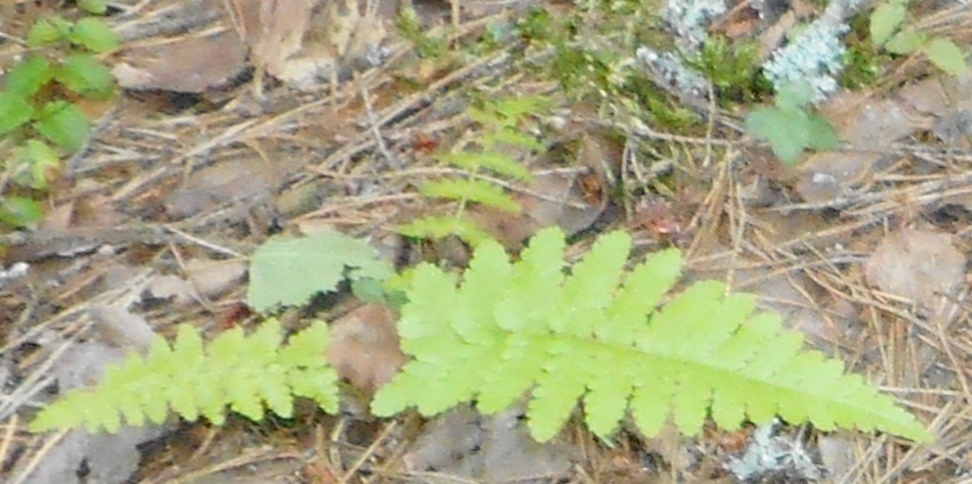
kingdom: Plantae
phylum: Tracheophyta
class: Polypodiopsida
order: Polypodiales
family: Dryopteridaceae
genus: Dryopteris
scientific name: Dryopteris filix-mas
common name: Male fern
